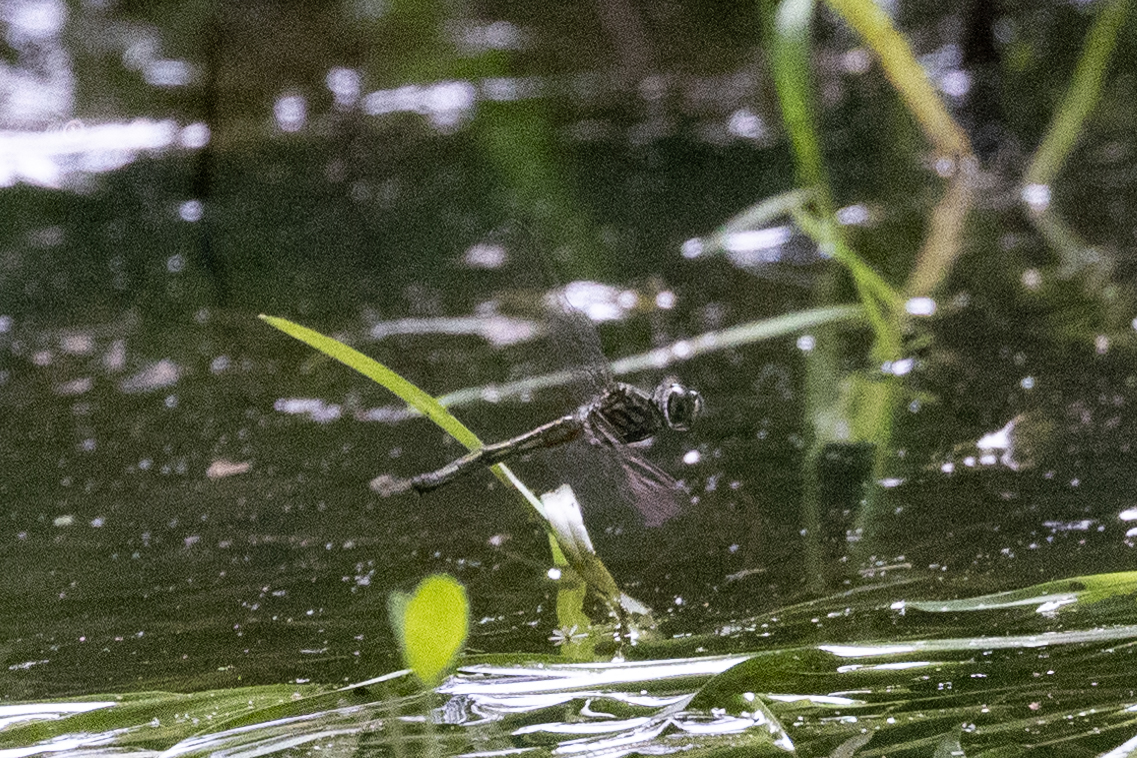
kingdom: Animalia
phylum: Arthropoda
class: Insecta
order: Odonata
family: Libellulidae
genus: Pachydiplax
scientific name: Pachydiplax longipennis
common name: Blue dasher
